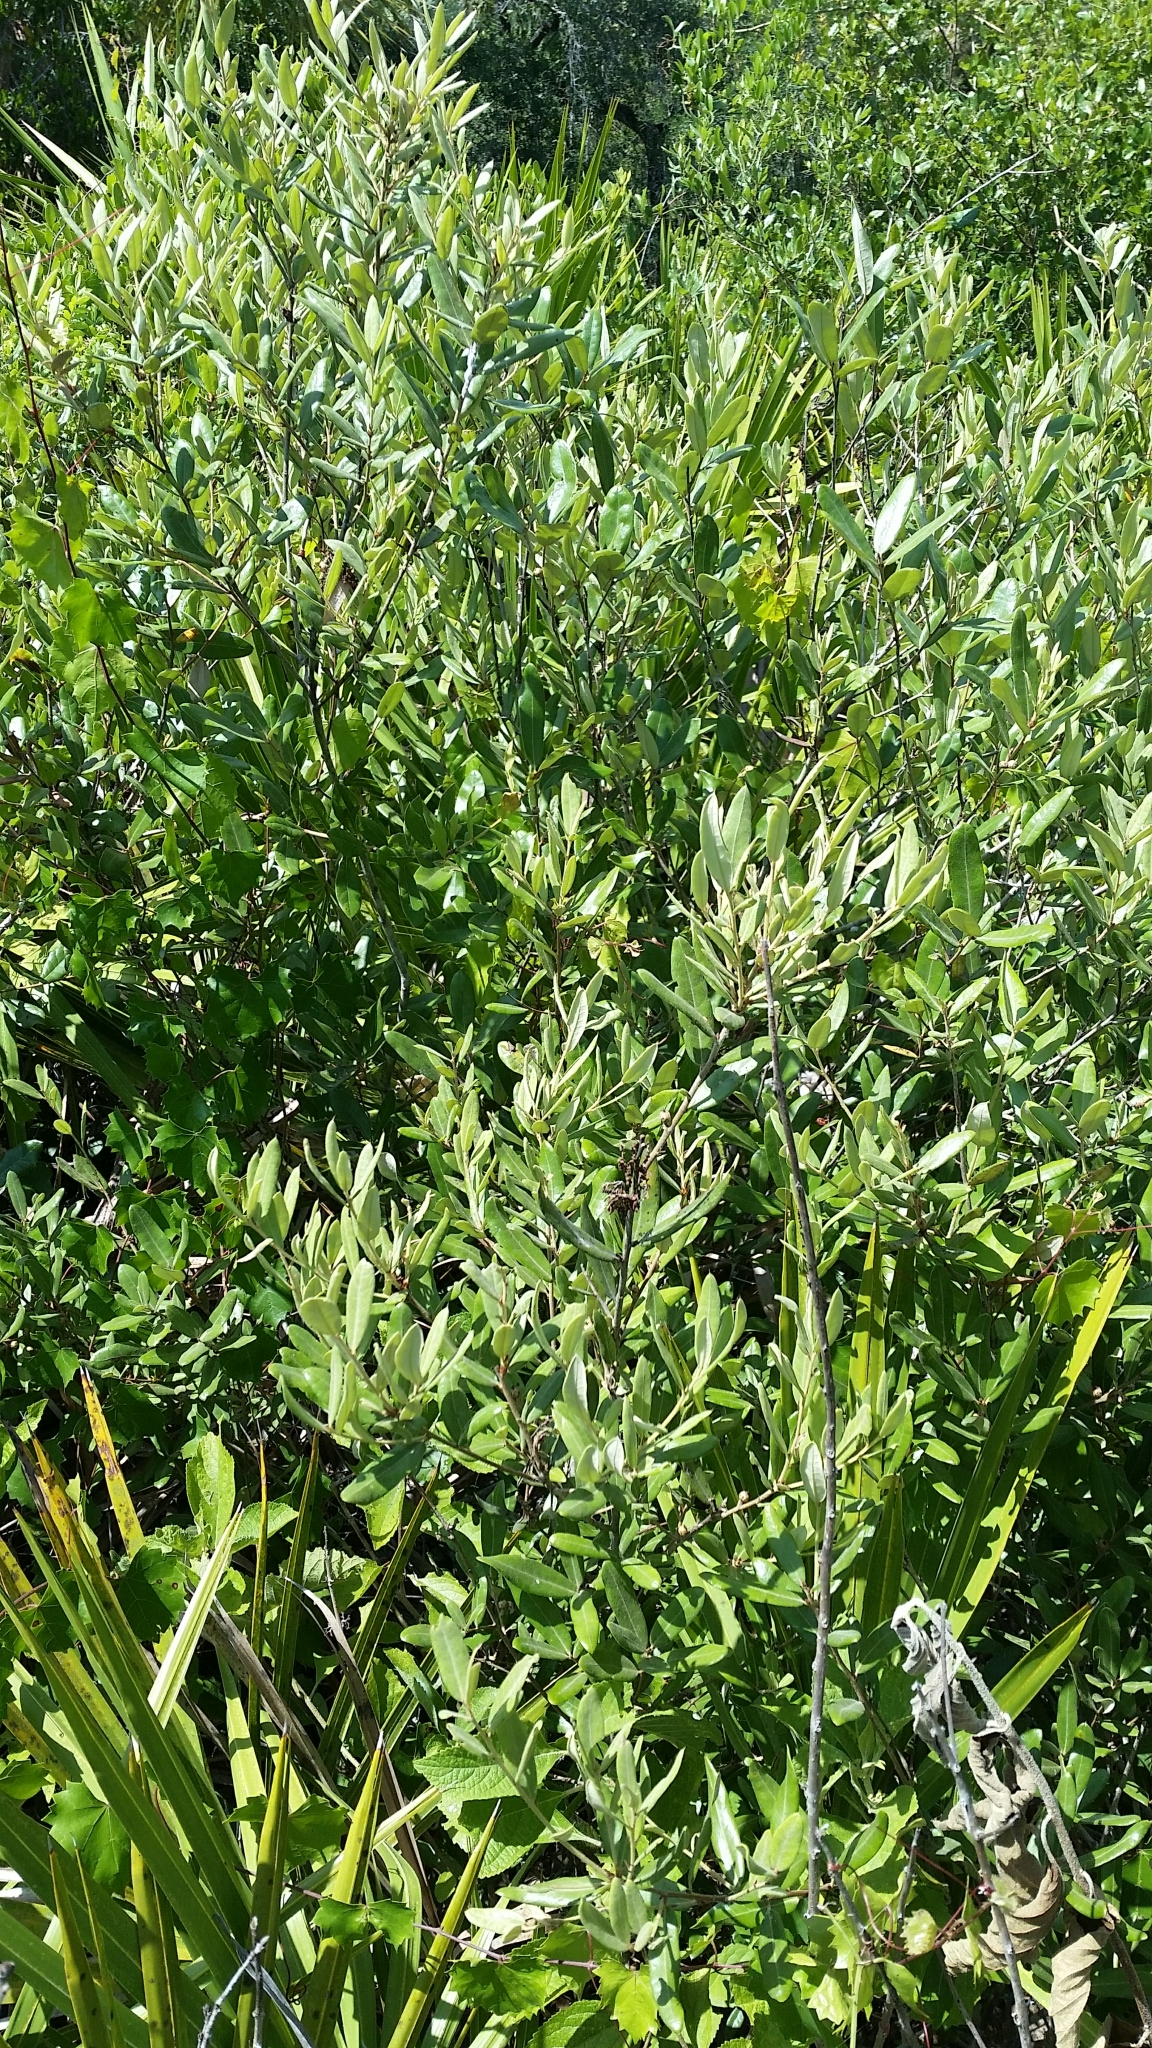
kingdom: Plantae
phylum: Tracheophyta
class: Magnoliopsida
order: Fagales
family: Fagaceae
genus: Quercus
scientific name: Quercus pumila
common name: Runner oak
